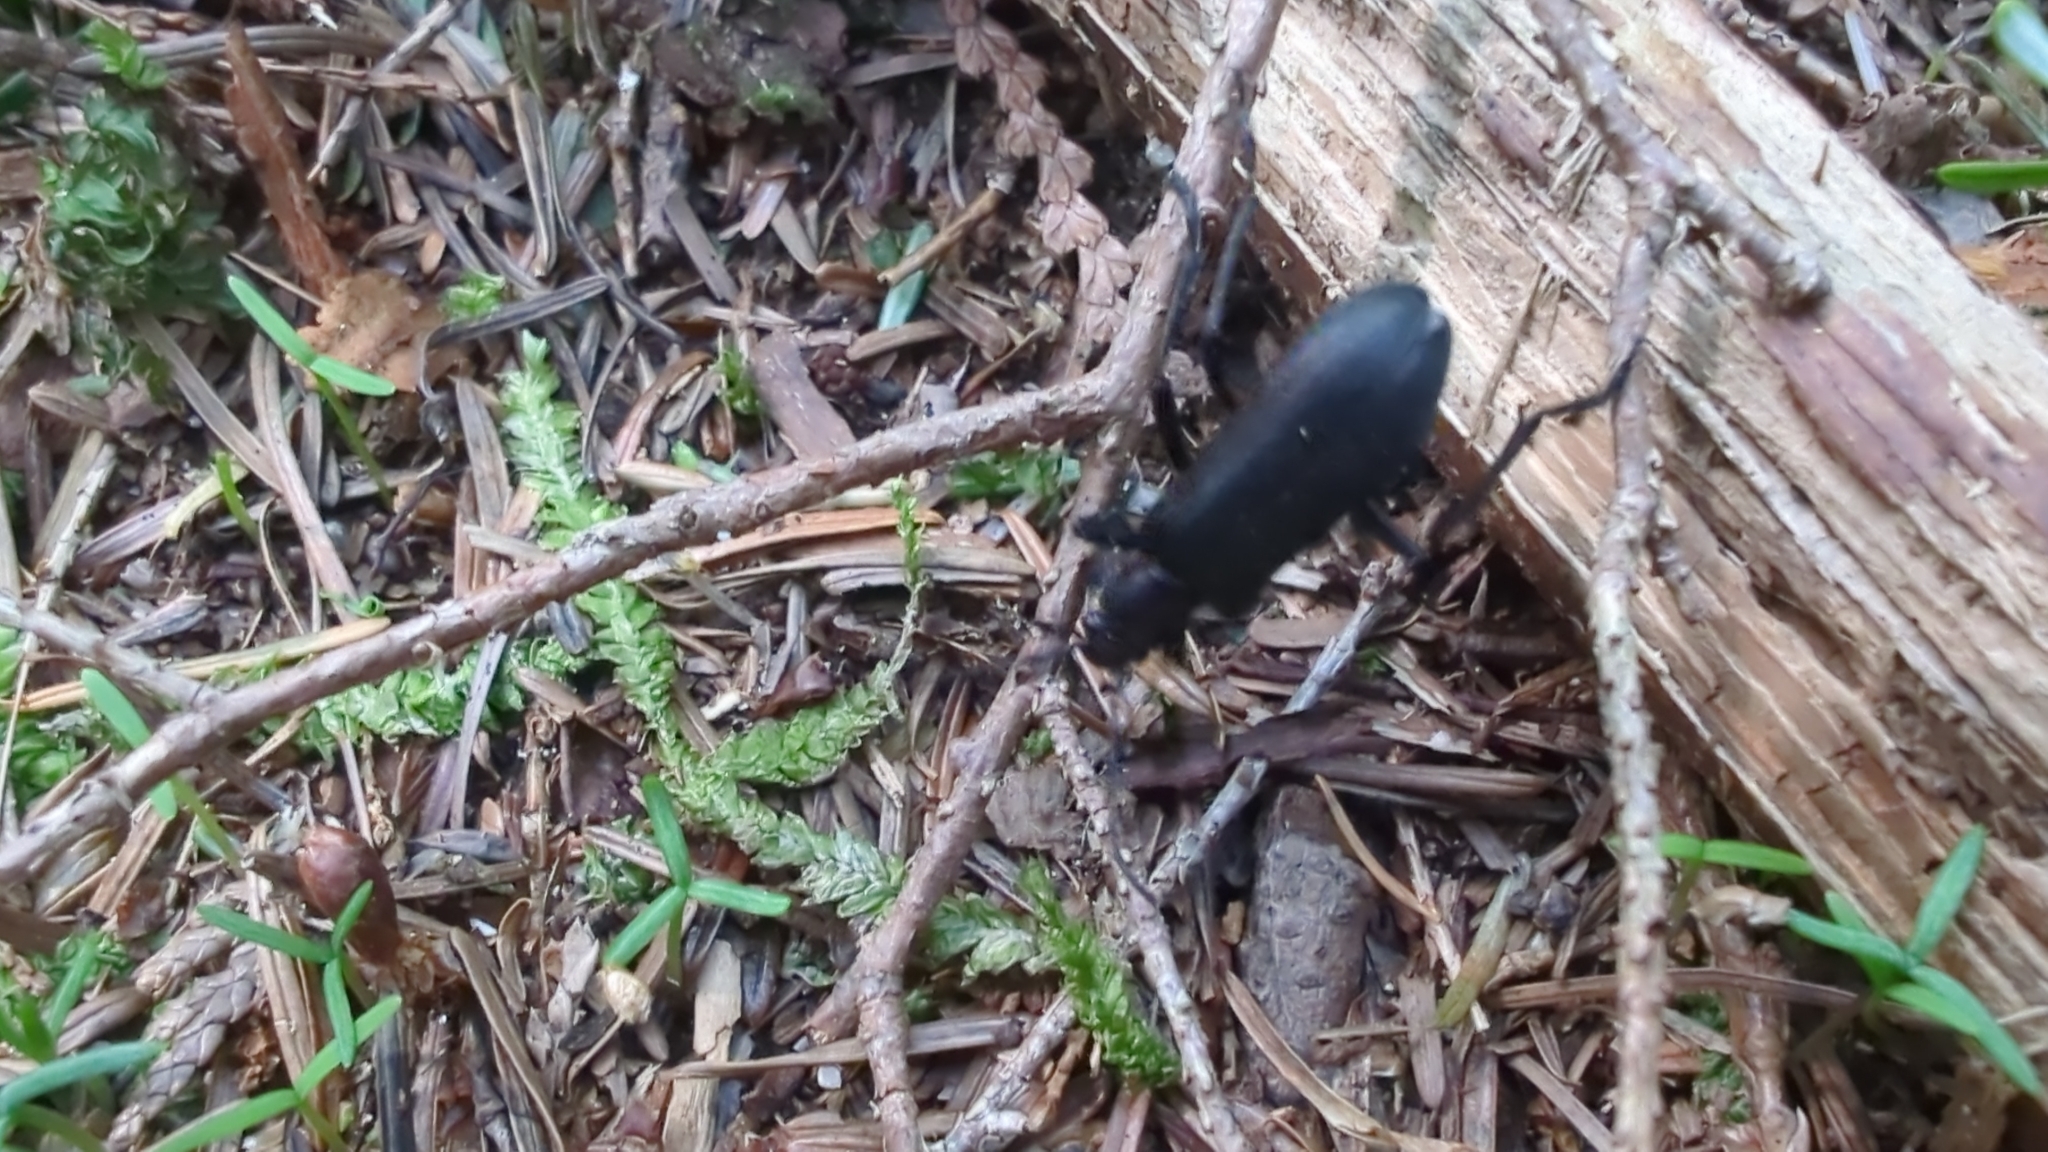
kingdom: Animalia
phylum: Arthropoda
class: Insecta
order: Coleoptera
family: Oedemeridae
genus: Ditylus
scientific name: Ditylus gracilis
